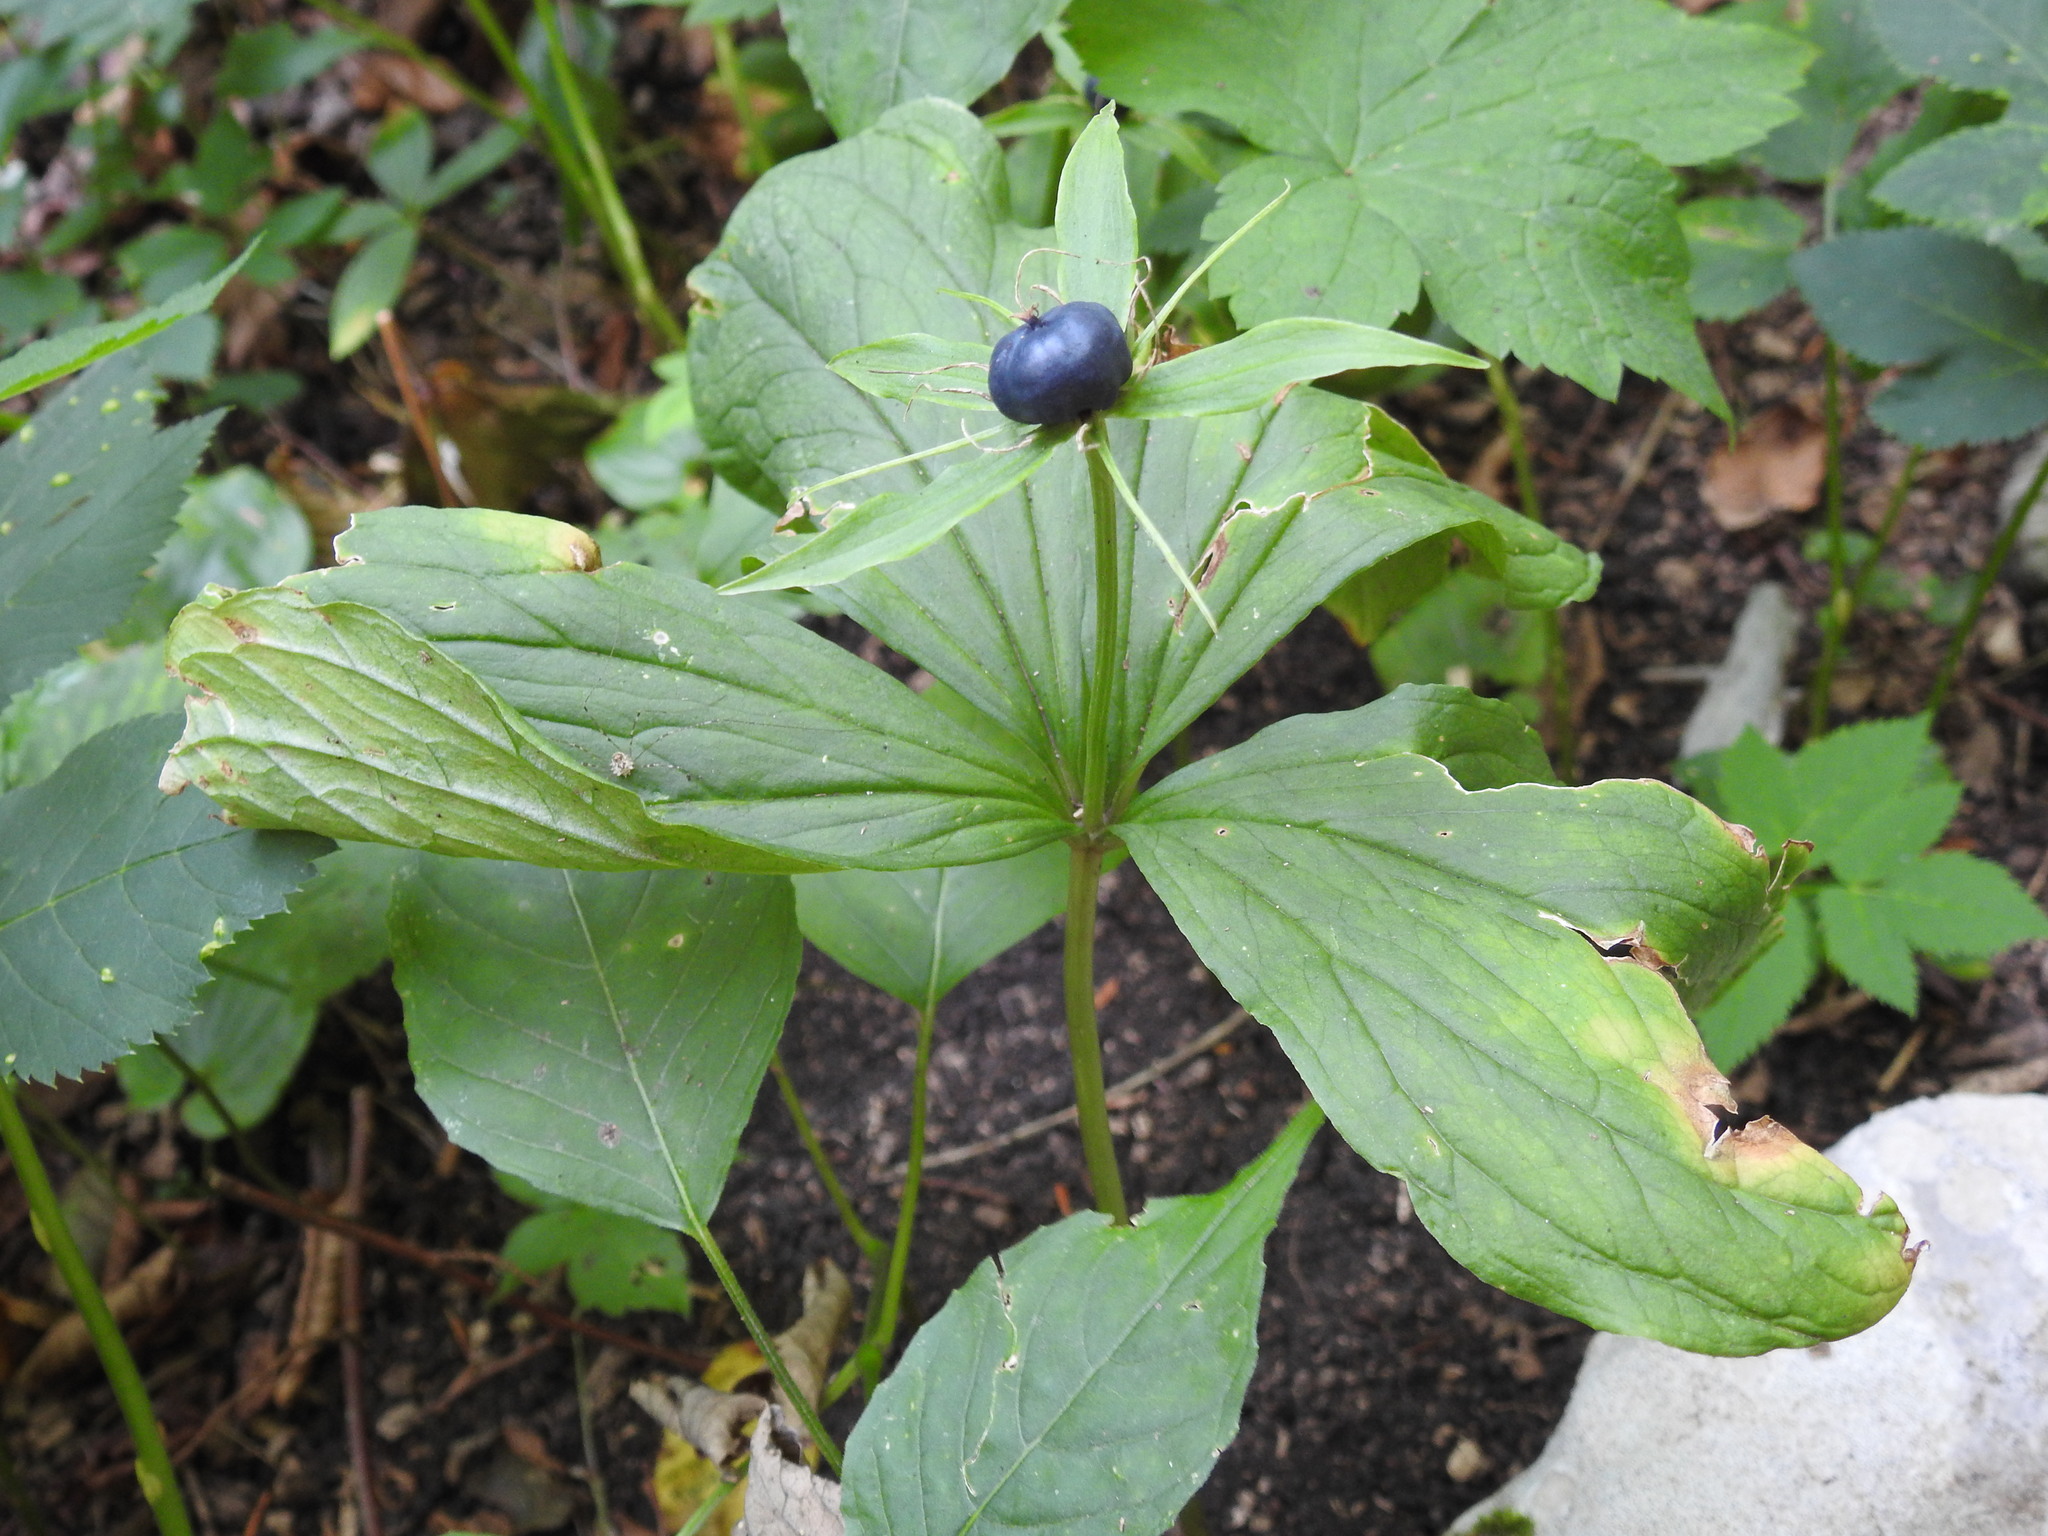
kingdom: Plantae
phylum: Tracheophyta
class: Liliopsida
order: Liliales
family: Melanthiaceae
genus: Paris
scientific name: Paris quadrifolia
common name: Herb-paris
